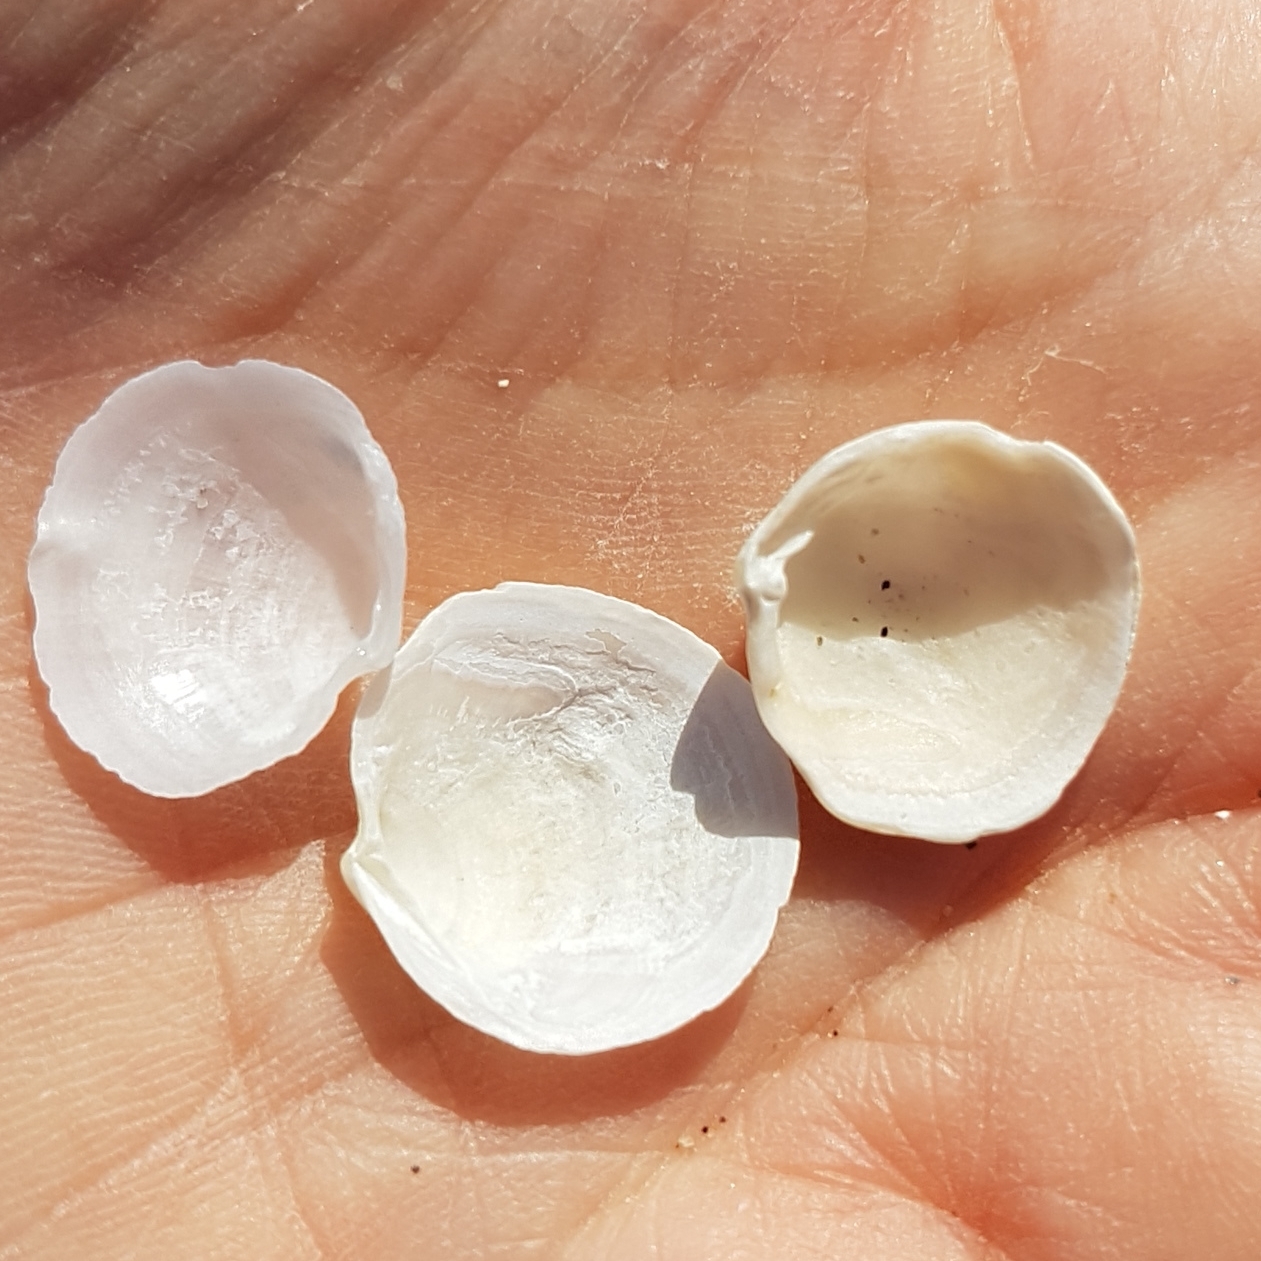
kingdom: Animalia
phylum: Mollusca
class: Bivalvia
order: Lucinida
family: Lucinidae
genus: Loripes
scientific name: Loripes orbiculatus
